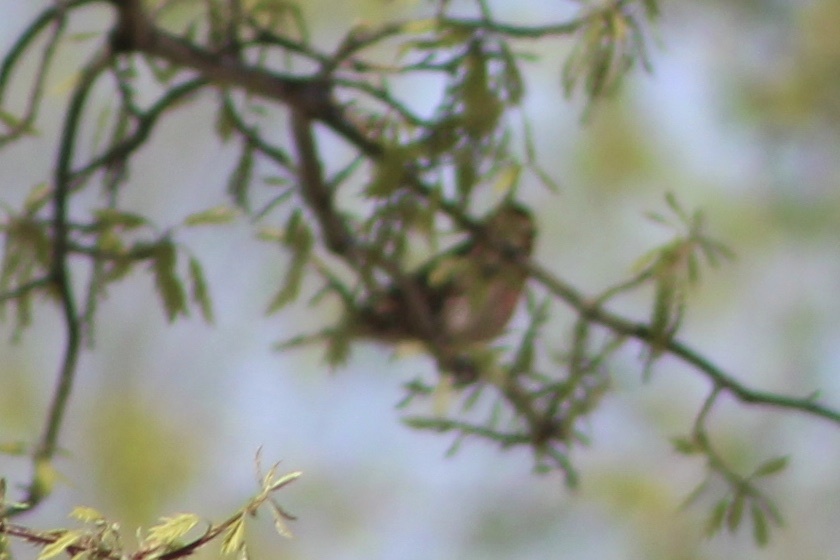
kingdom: Animalia
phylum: Chordata
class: Aves
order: Passeriformes
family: Fringillidae
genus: Haemorhous
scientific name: Haemorhous mexicanus
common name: House finch
